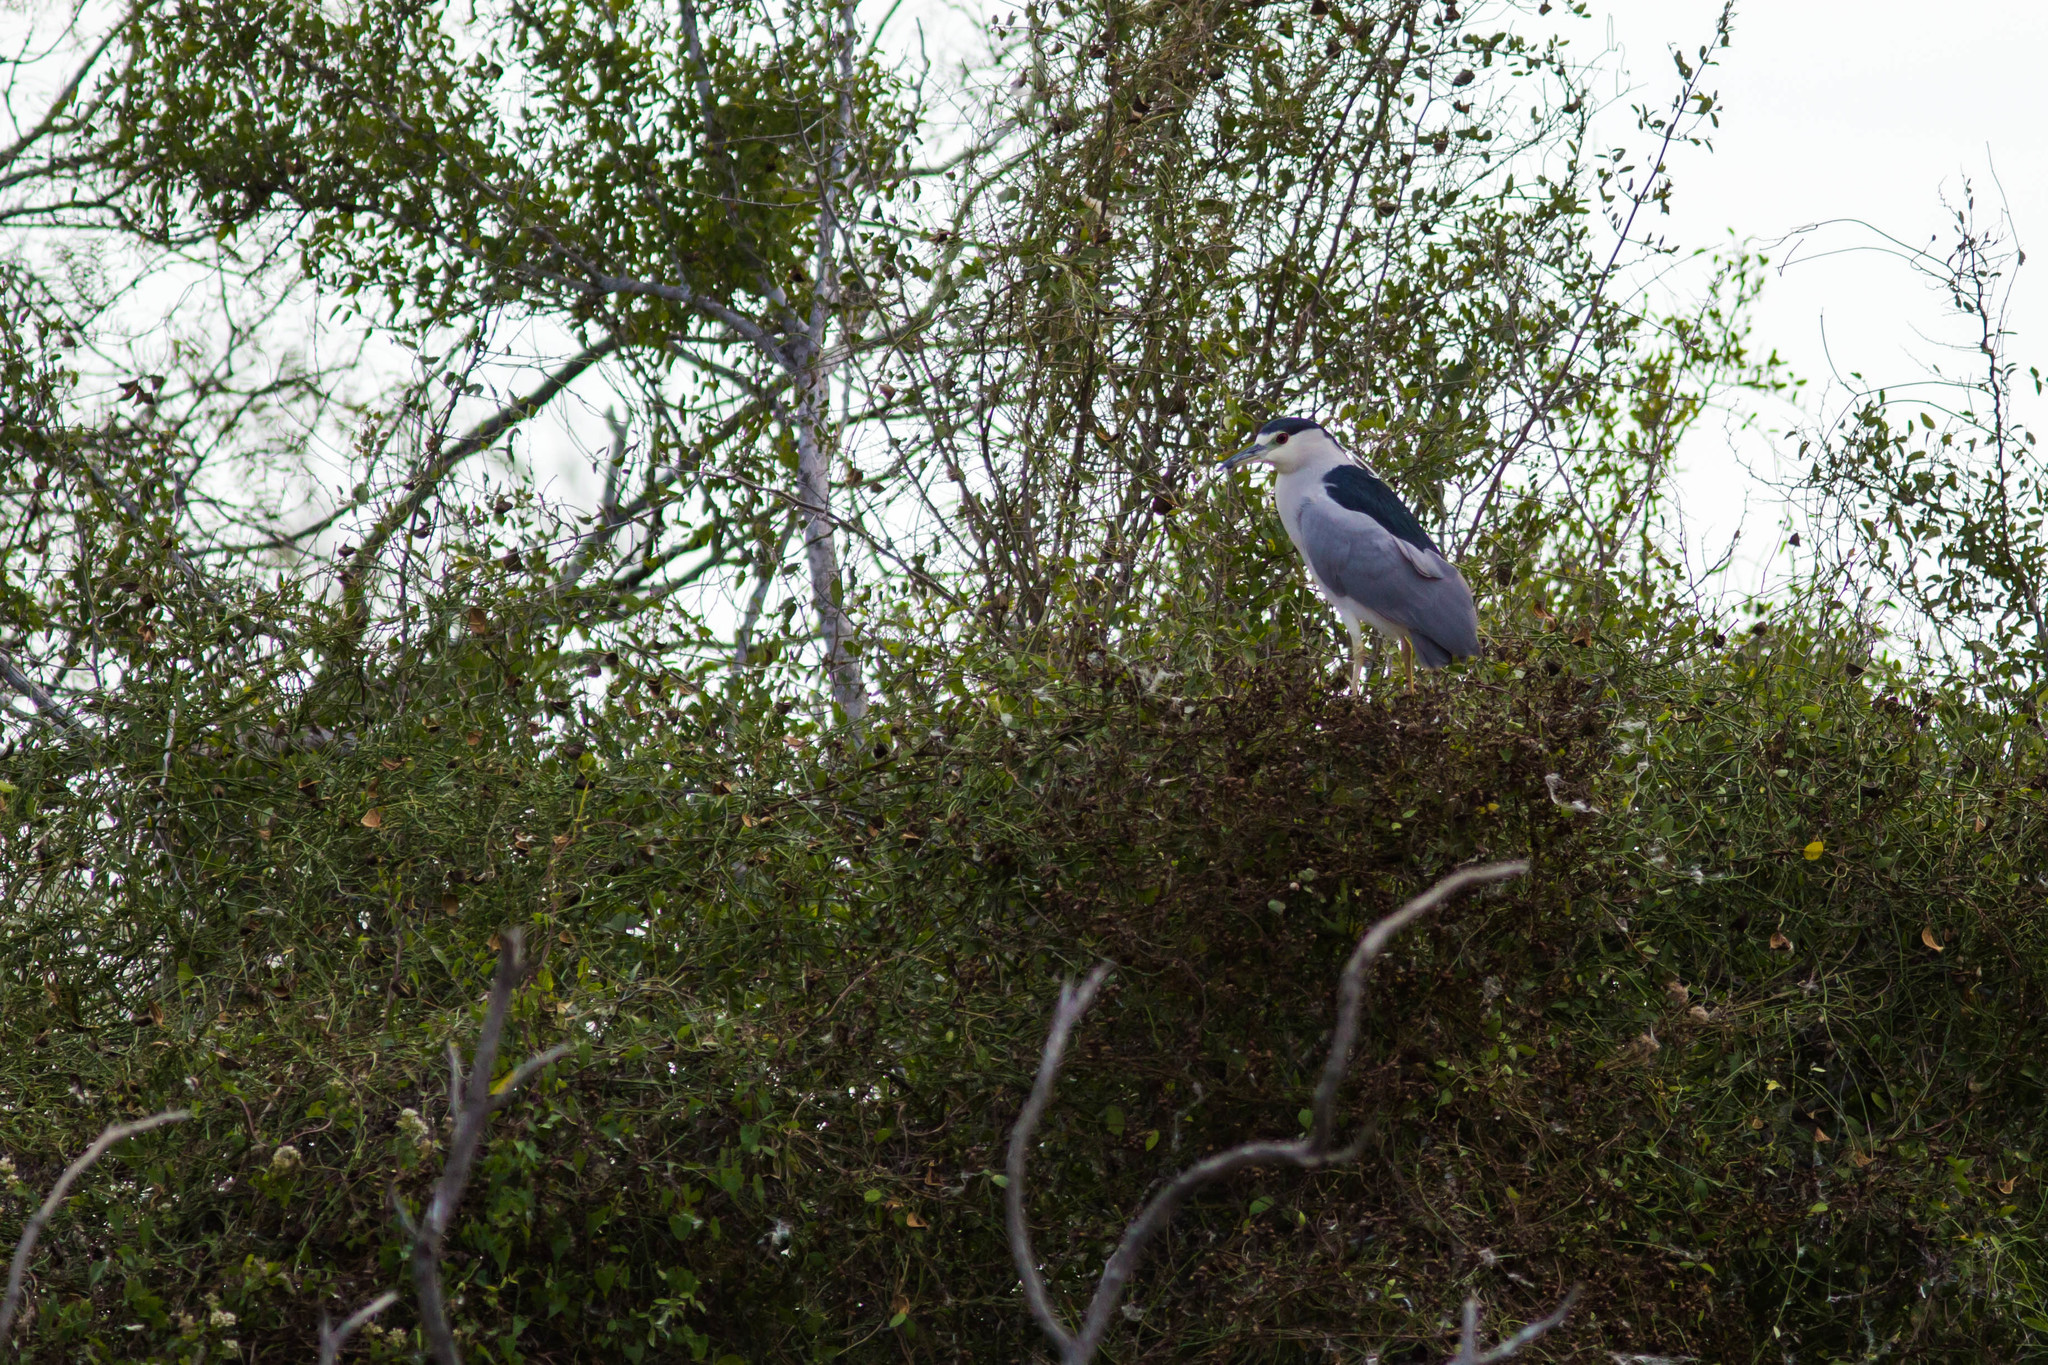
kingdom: Animalia
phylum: Chordata
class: Aves
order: Pelecaniformes
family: Ardeidae
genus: Nycticorax
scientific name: Nycticorax nycticorax
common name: Black-crowned night heron
